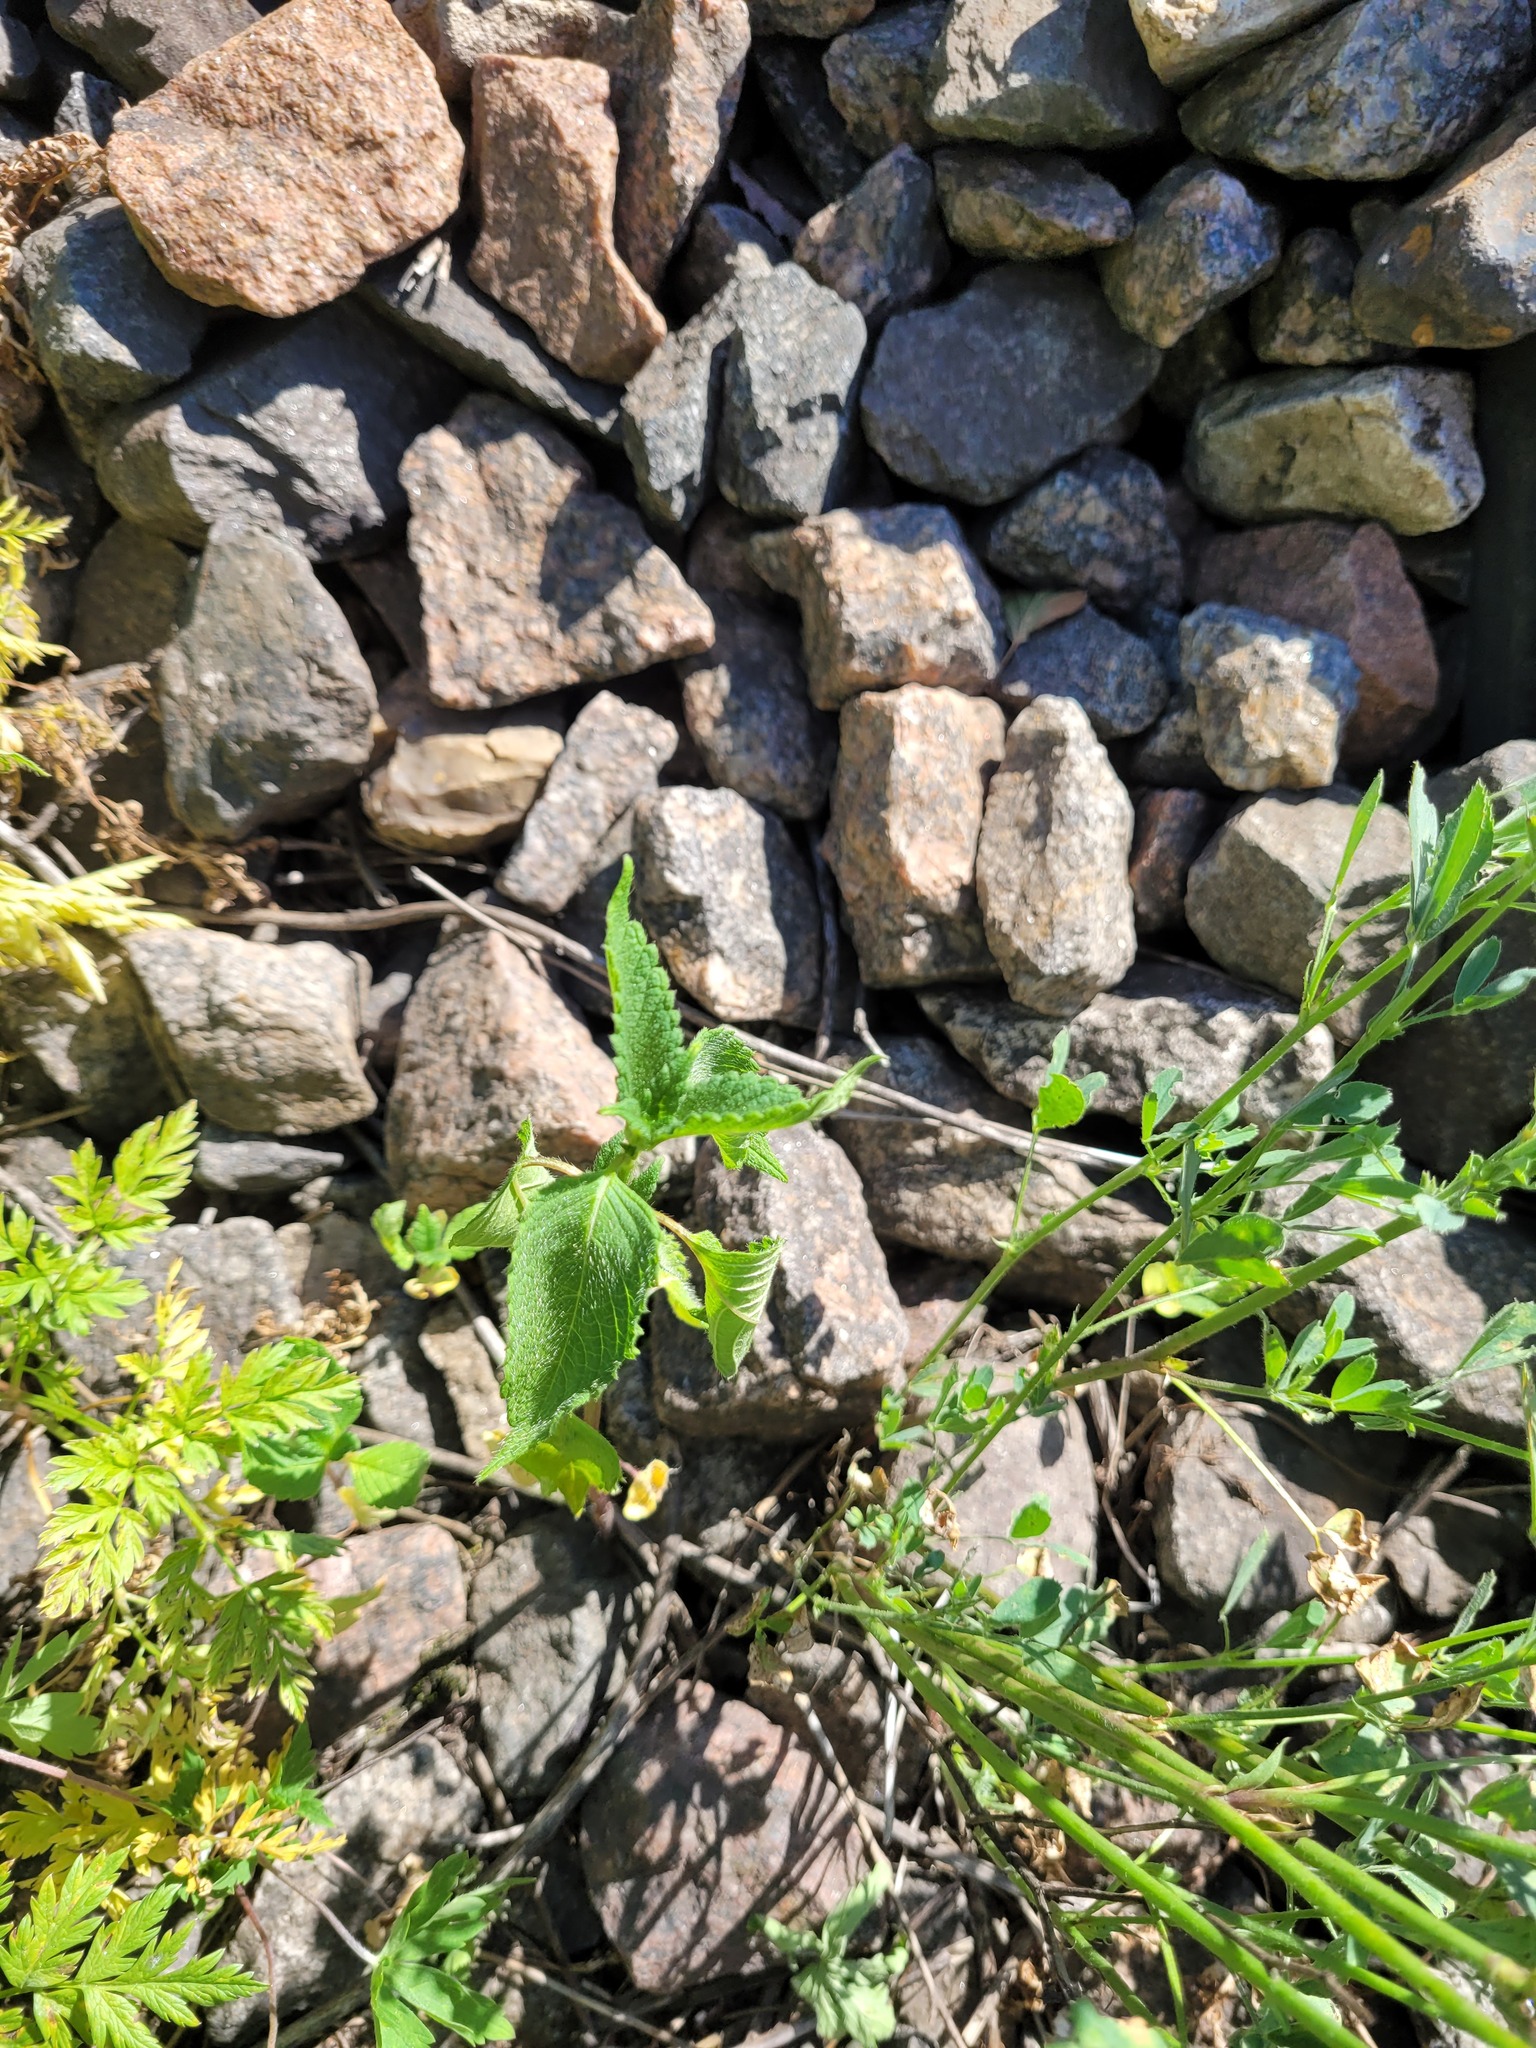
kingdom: Plantae
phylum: Tracheophyta
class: Magnoliopsida
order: Lamiales
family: Lamiaceae
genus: Galeopsis
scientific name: Galeopsis
